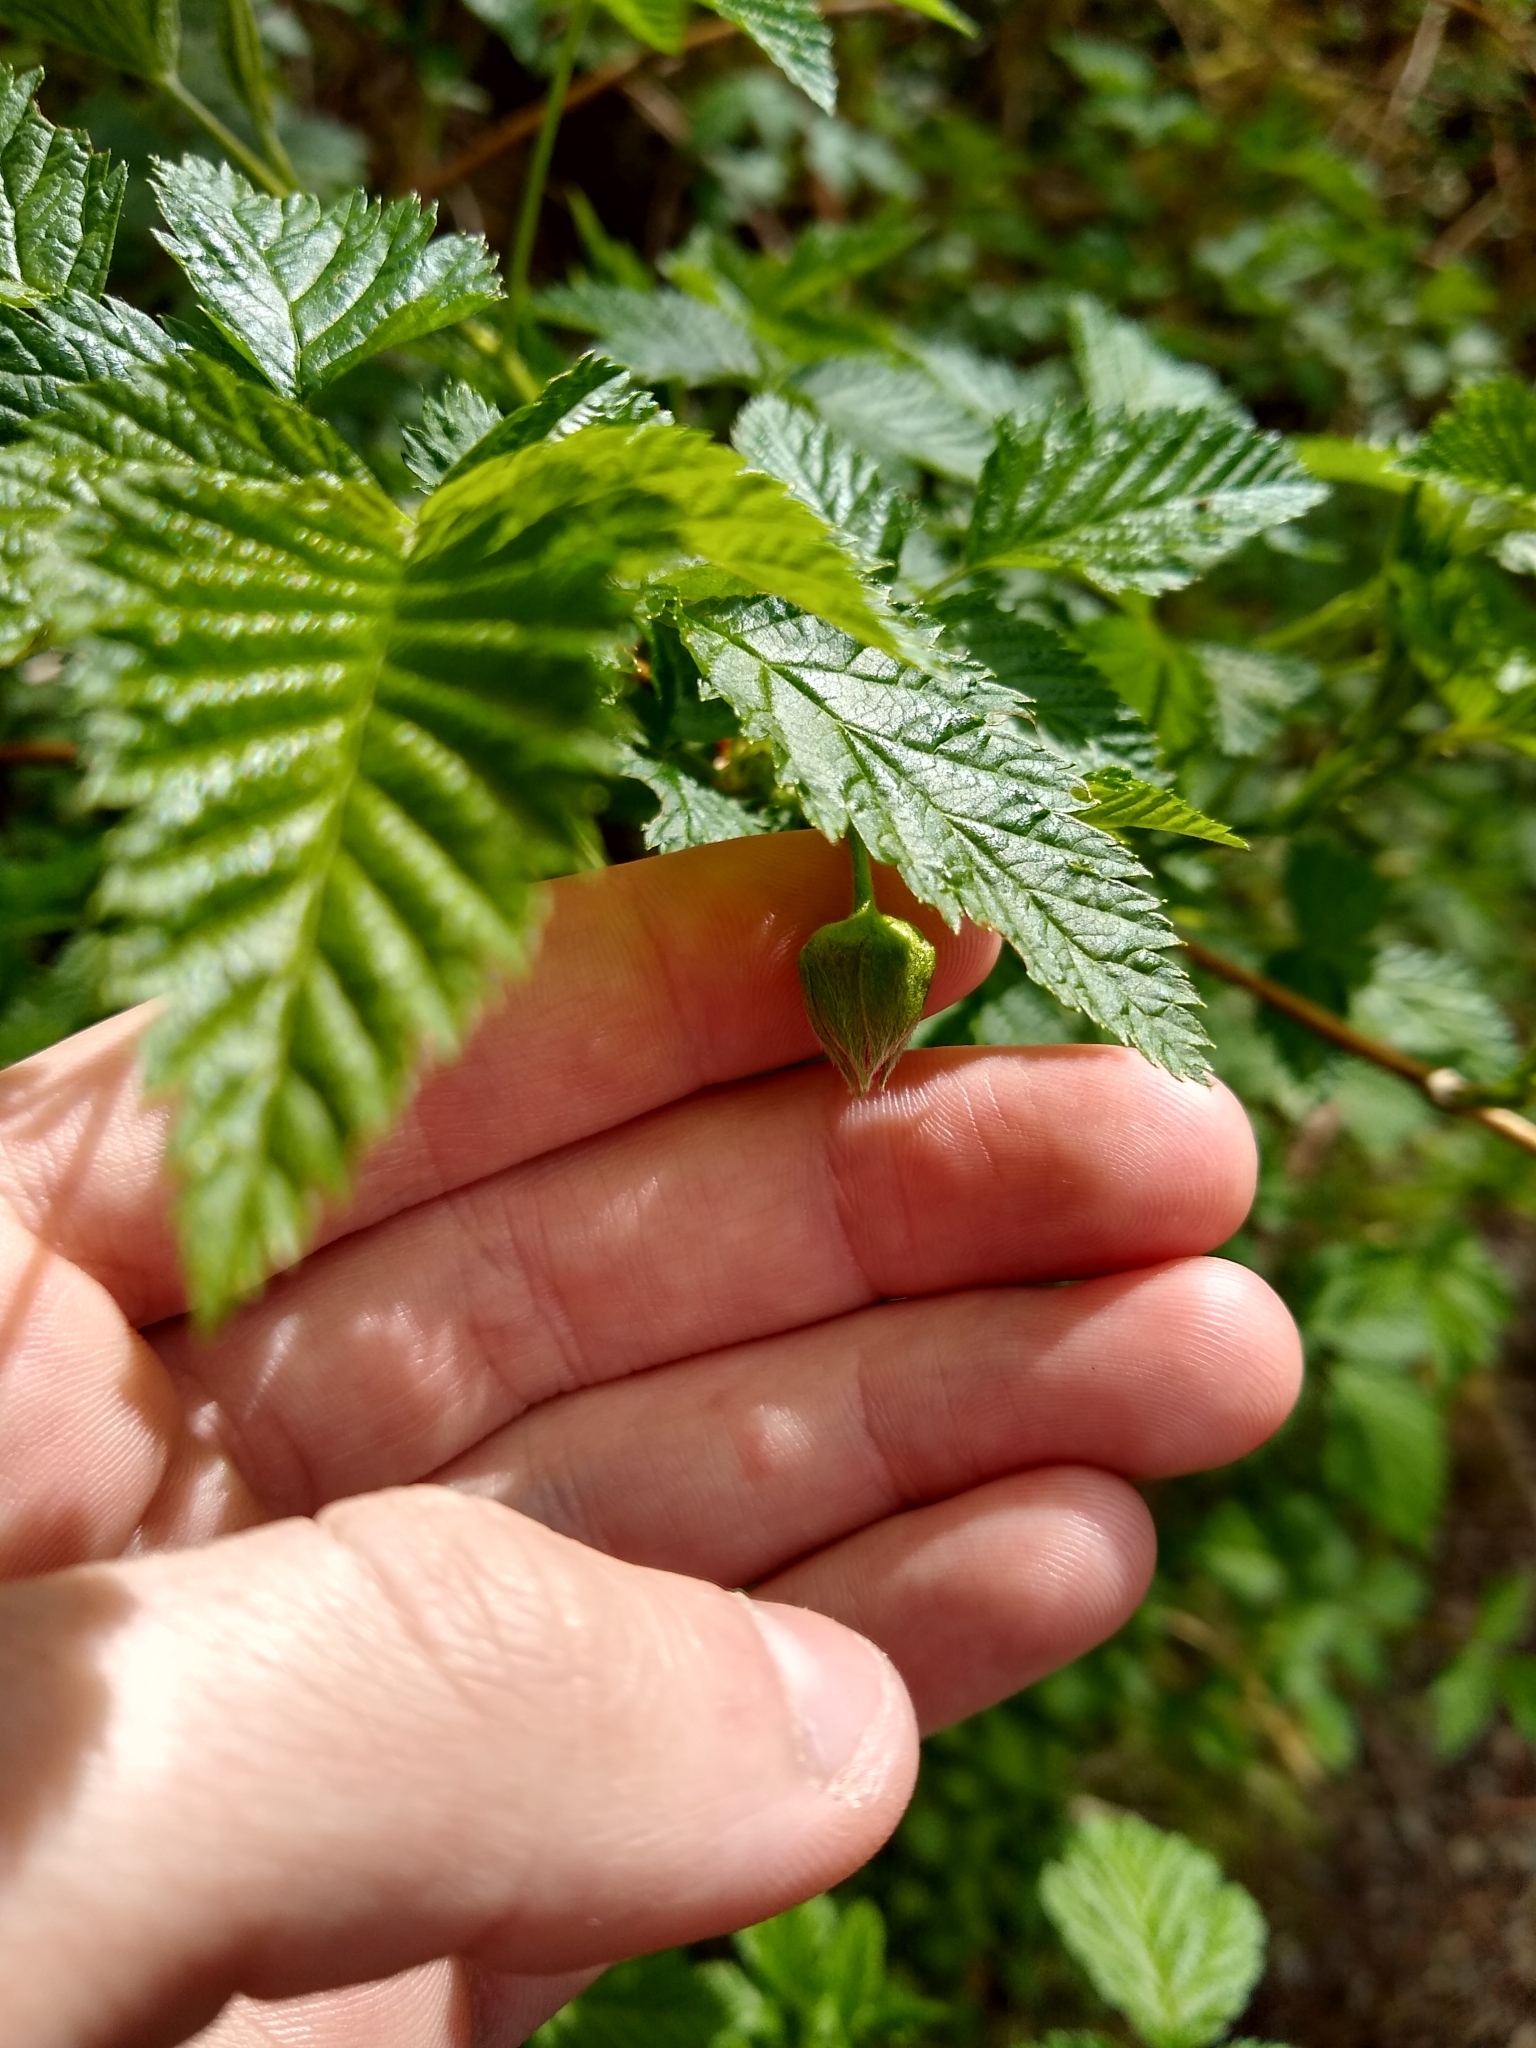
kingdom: Plantae
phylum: Tracheophyta
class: Magnoliopsida
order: Rosales
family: Rosaceae
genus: Rubus
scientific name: Rubus spectabilis
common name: Salmonberry
